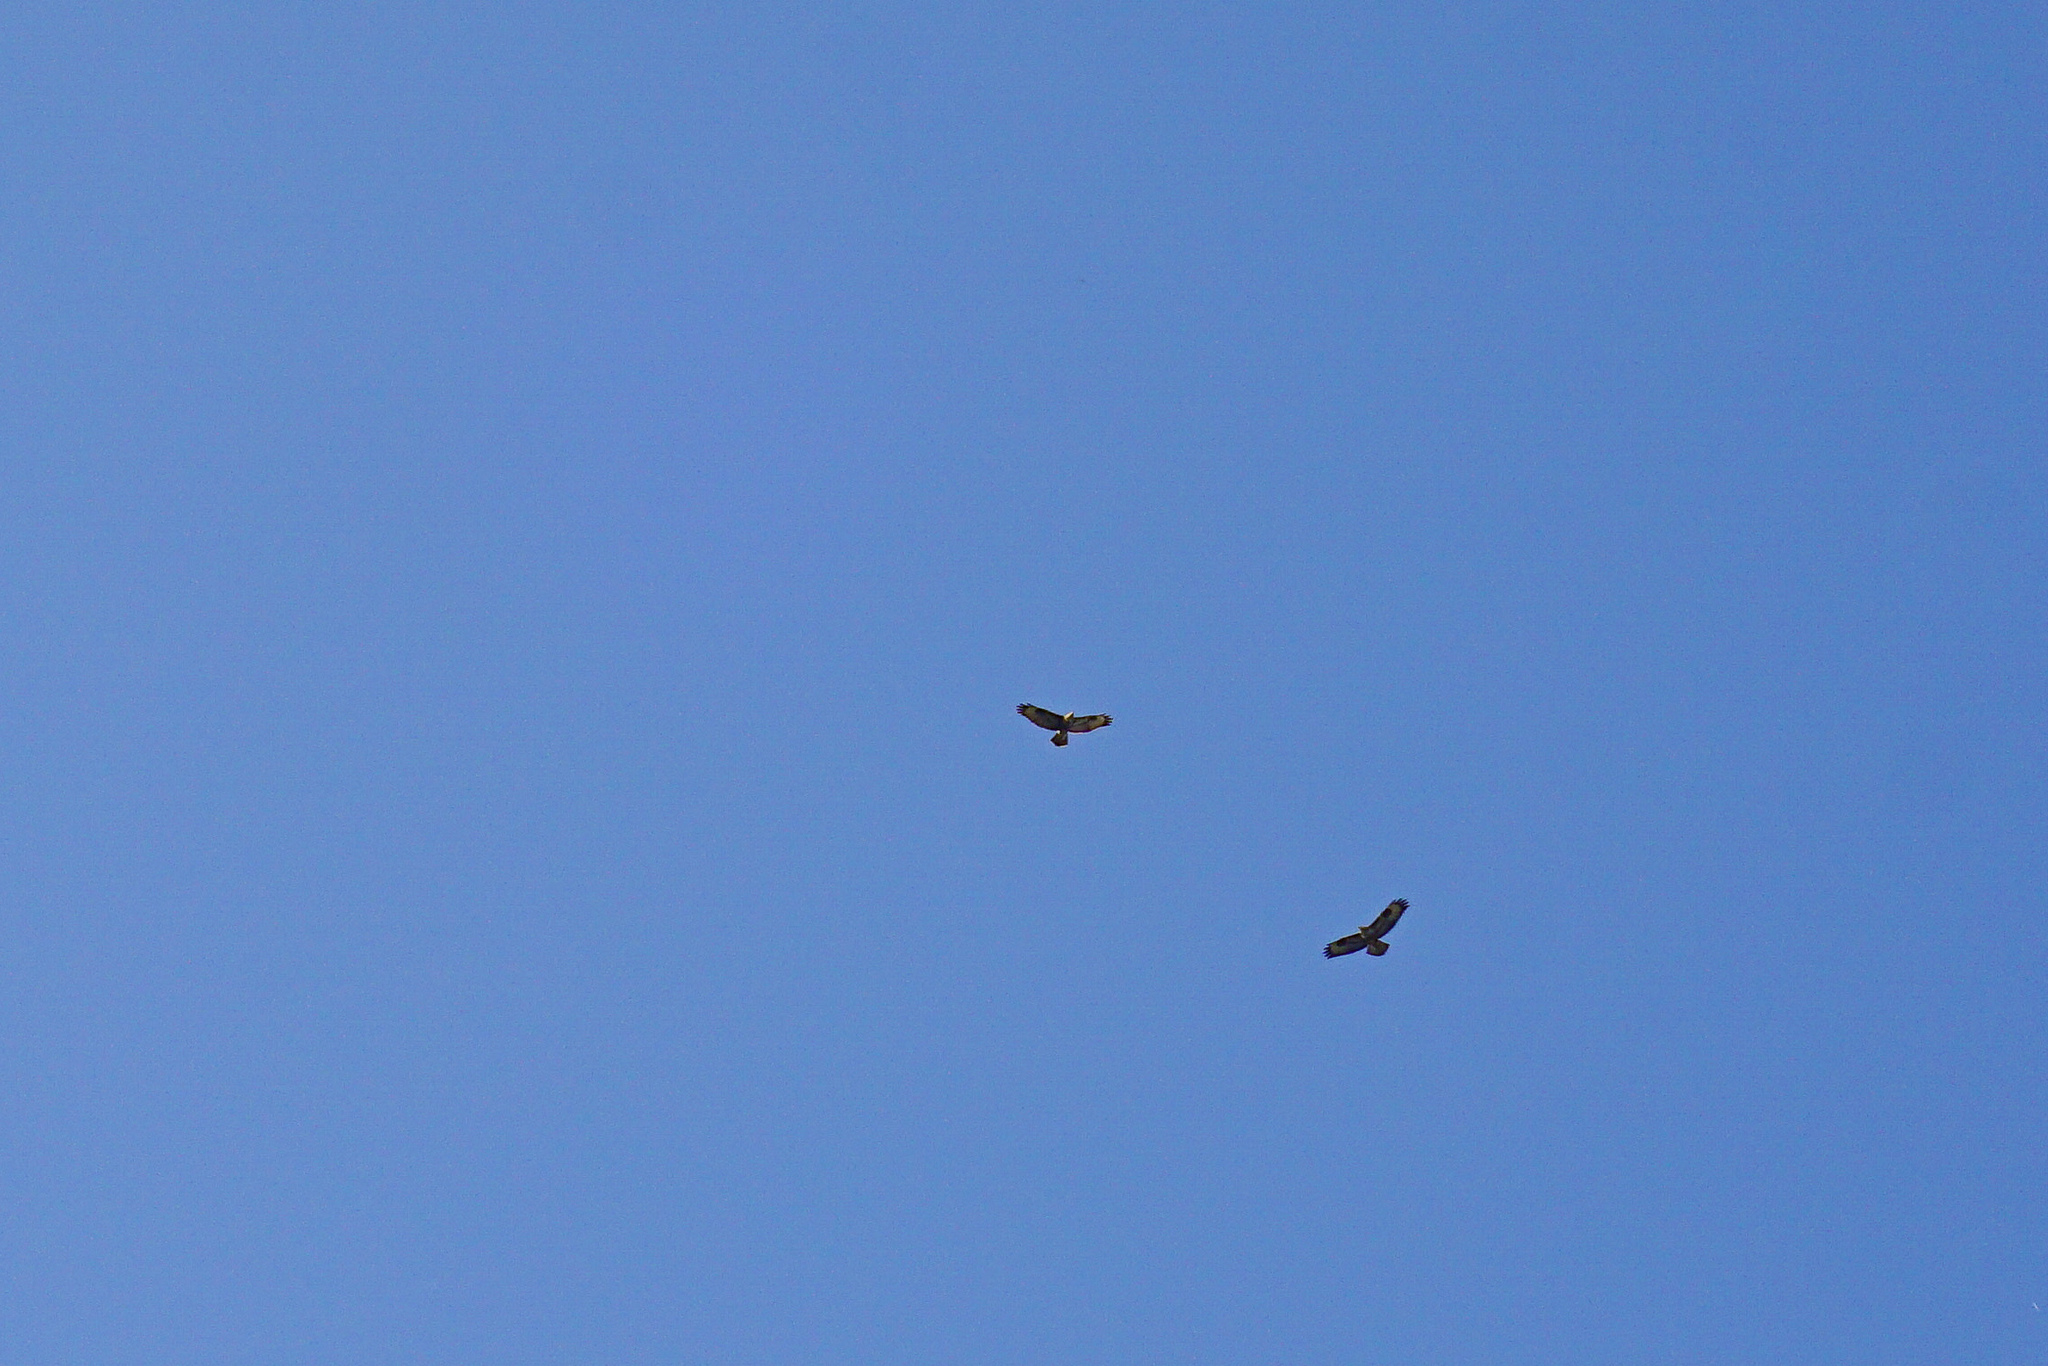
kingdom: Animalia
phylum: Chordata
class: Aves
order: Accipitriformes
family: Accipitridae
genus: Buteo
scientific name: Buteo buteo
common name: Common buzzard
